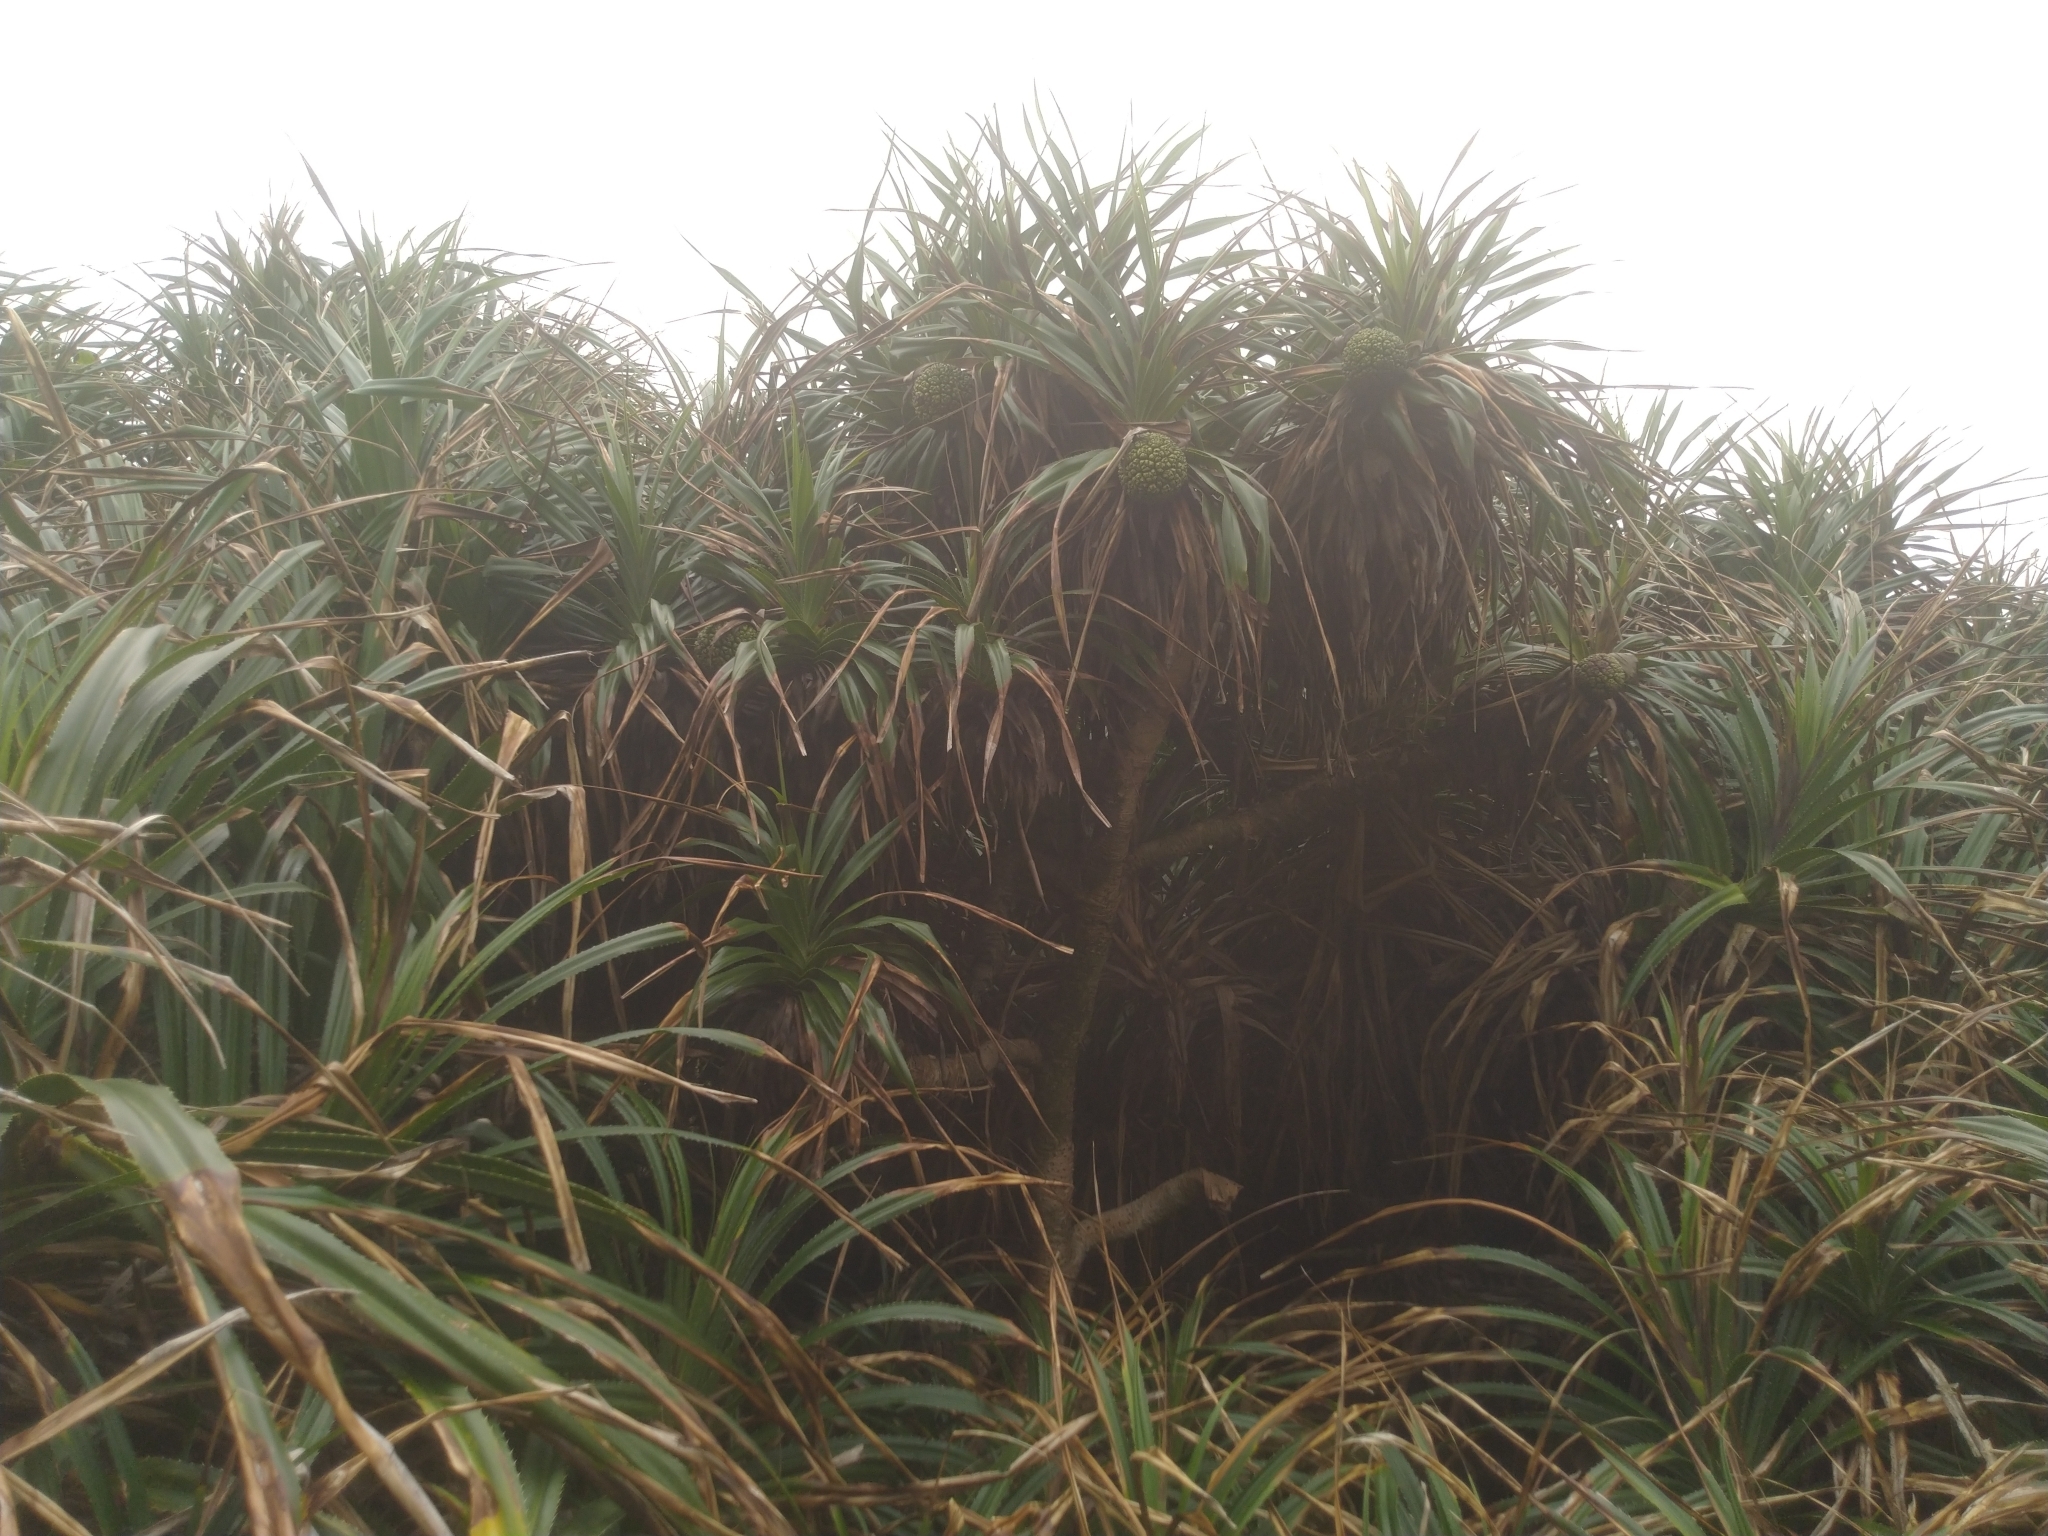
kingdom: Plantae
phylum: Tracheophyta
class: Liliopsida
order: Pandanales
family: Pandanaceae
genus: Pandanus
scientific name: Pandanus odorifer
